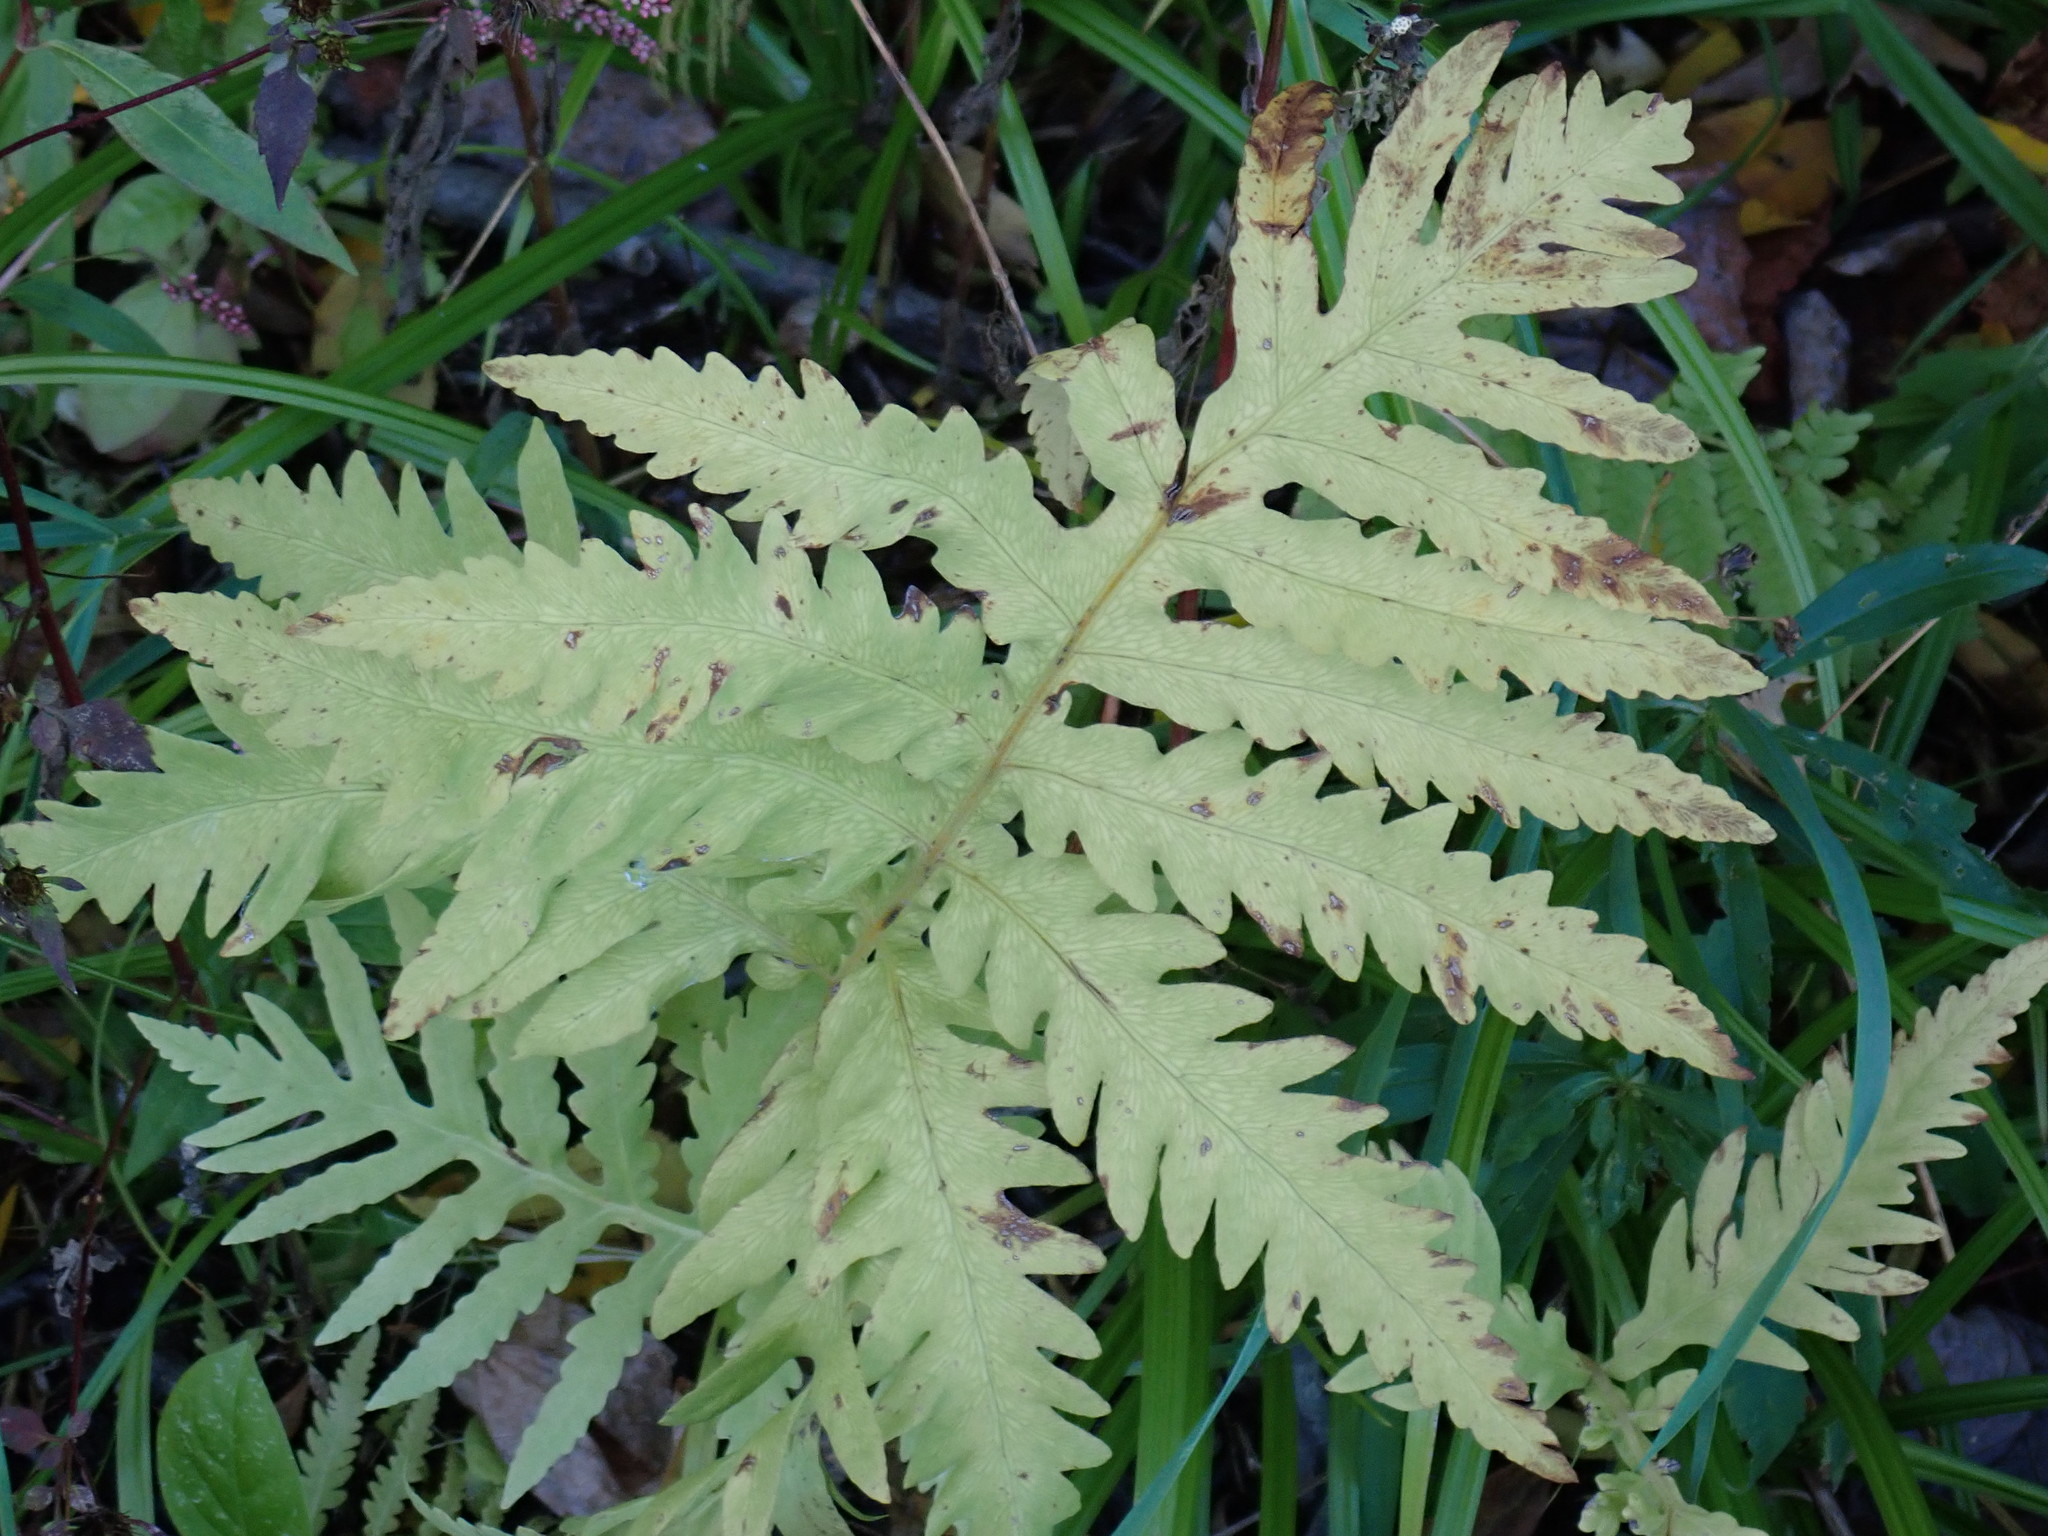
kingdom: Plantae
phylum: Tracheophyta
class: Polypodiopsida
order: Polypodiales
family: Onocleaceae
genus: Onoclea
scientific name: Onoclea sensibilis
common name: Sensitive fern
